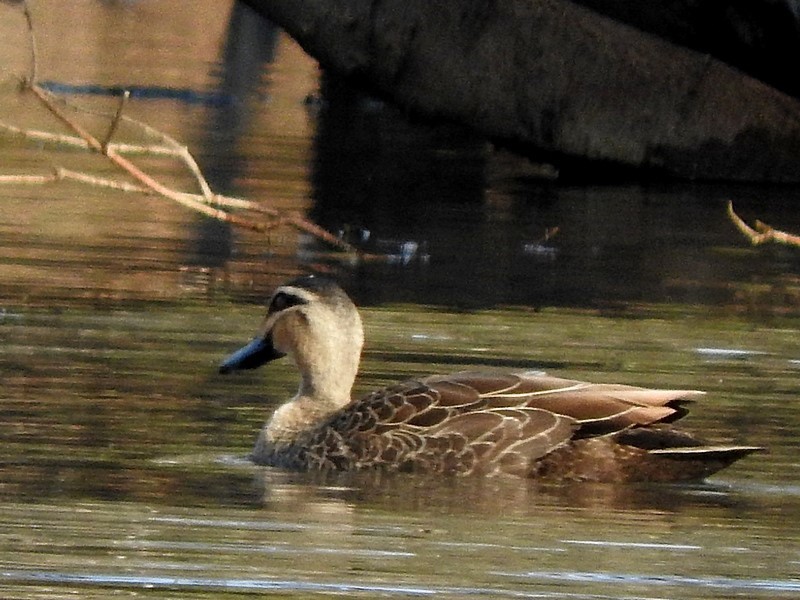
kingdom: Animalia
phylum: Chordata
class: Aves
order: Anseriformes
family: Anatidae
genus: Anas
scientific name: Anas superciliosa
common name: Pacific black duck
